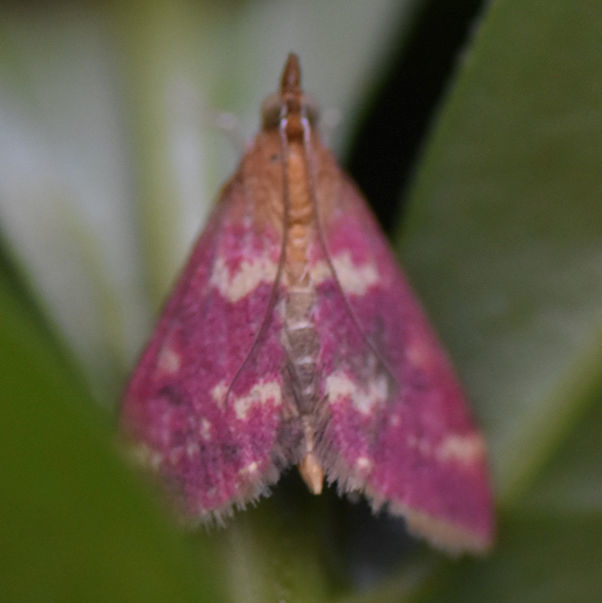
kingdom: Animalia
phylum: Arthropoda
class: Insecta
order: Lepidoptera
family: Crambidae
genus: Pyrausta
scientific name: Pyrausta signatalis
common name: Raspberry pyrausta moth
